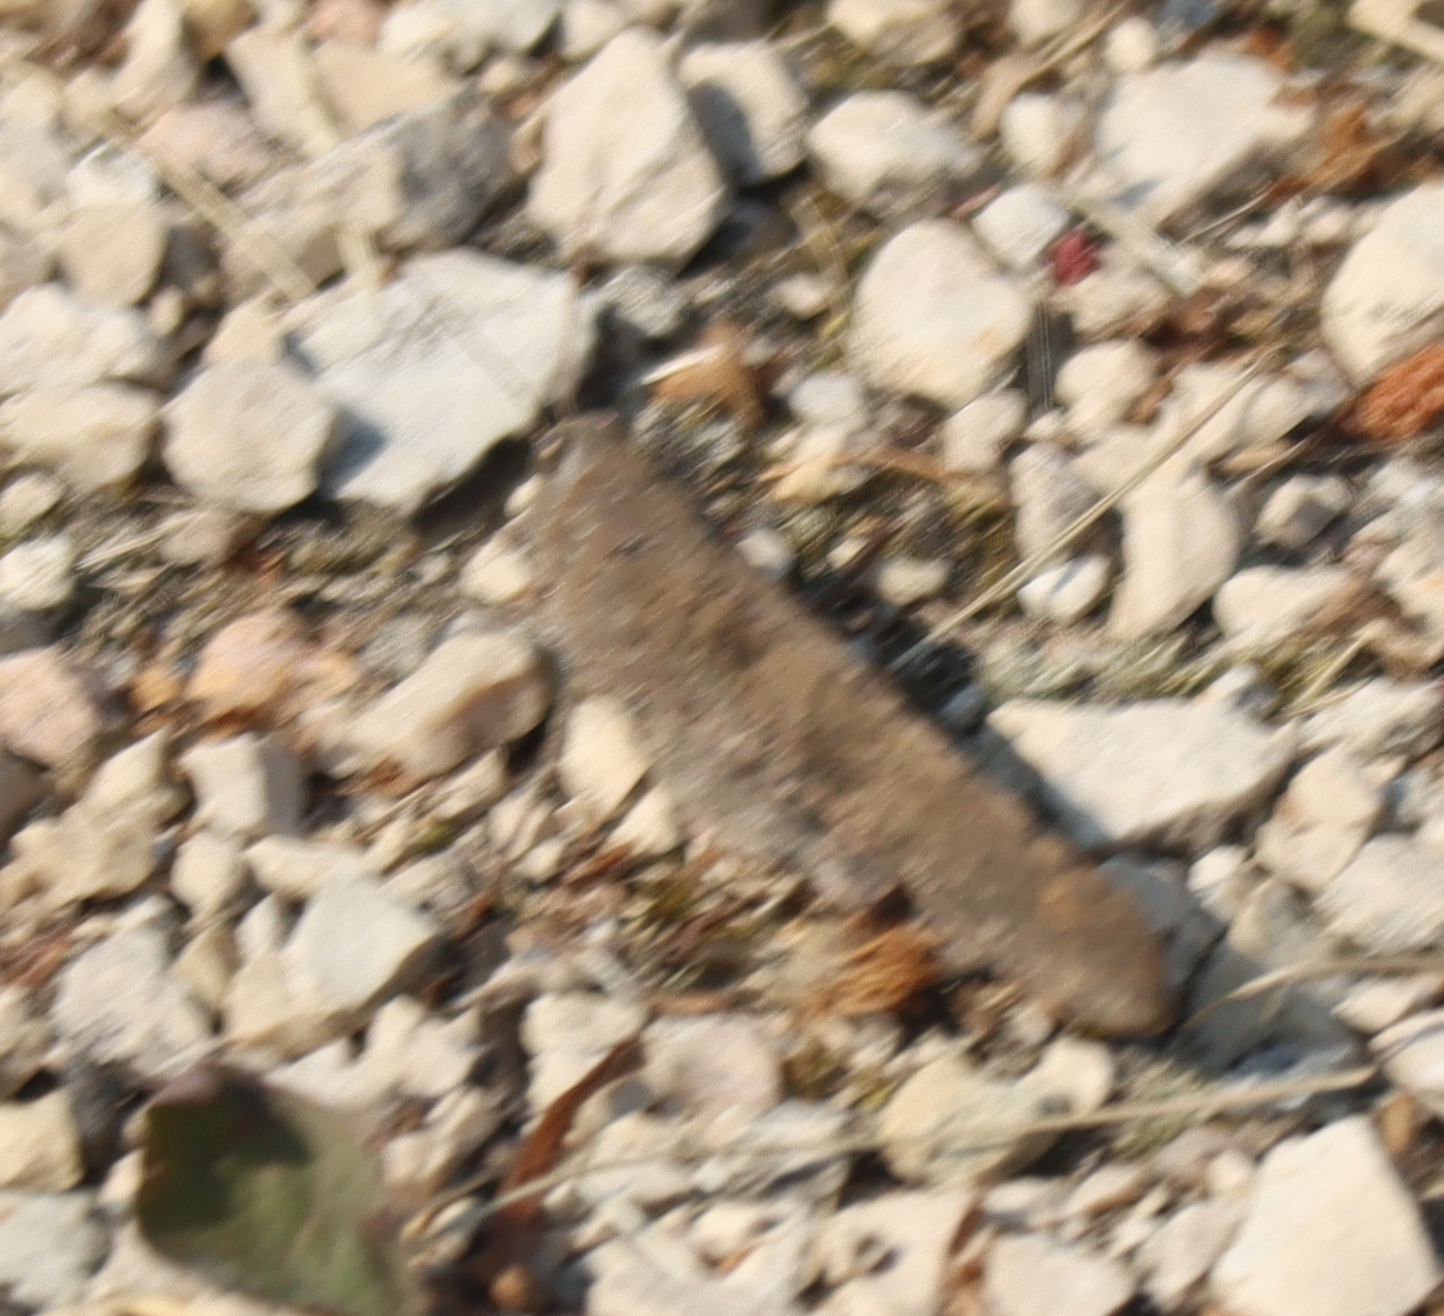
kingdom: Animalia
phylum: Arthropoda
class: Insecta
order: Orthoptera
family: Acrididae
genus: Dissosteira
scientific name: Dissosteira carolina
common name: Carolina grasshopper
